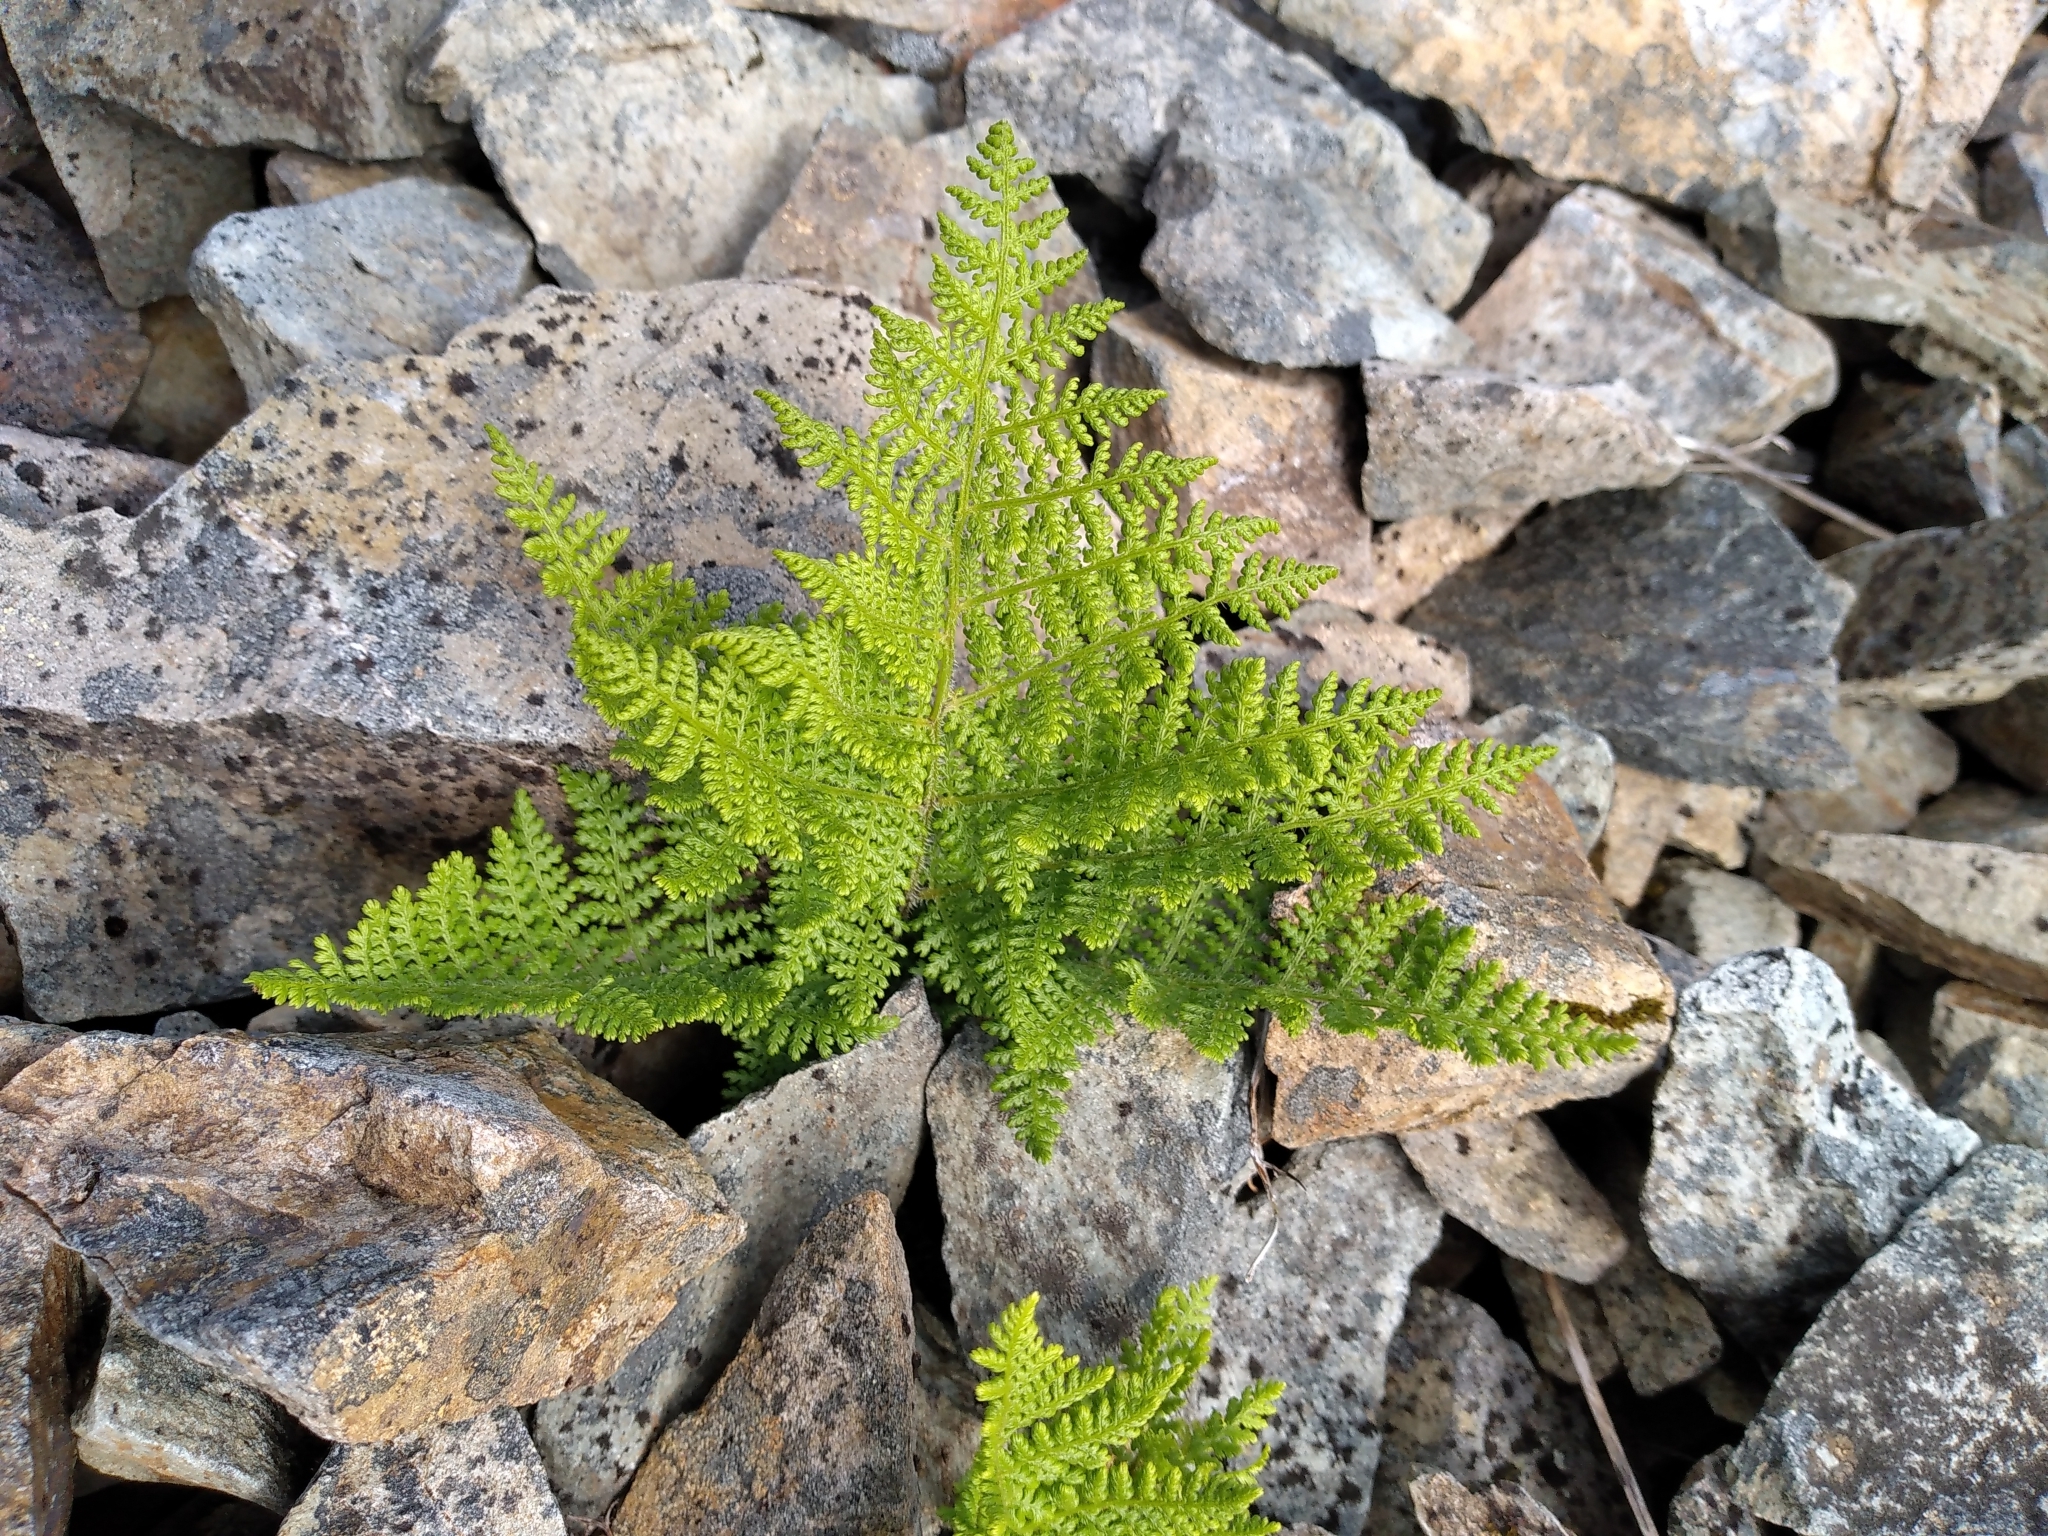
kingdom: Plantae
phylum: Tracheophyta
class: Polypodiopsida
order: Polypodiales
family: Dennstaedtiaceae
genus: Hypolepis
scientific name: Hypolepis millefolium
